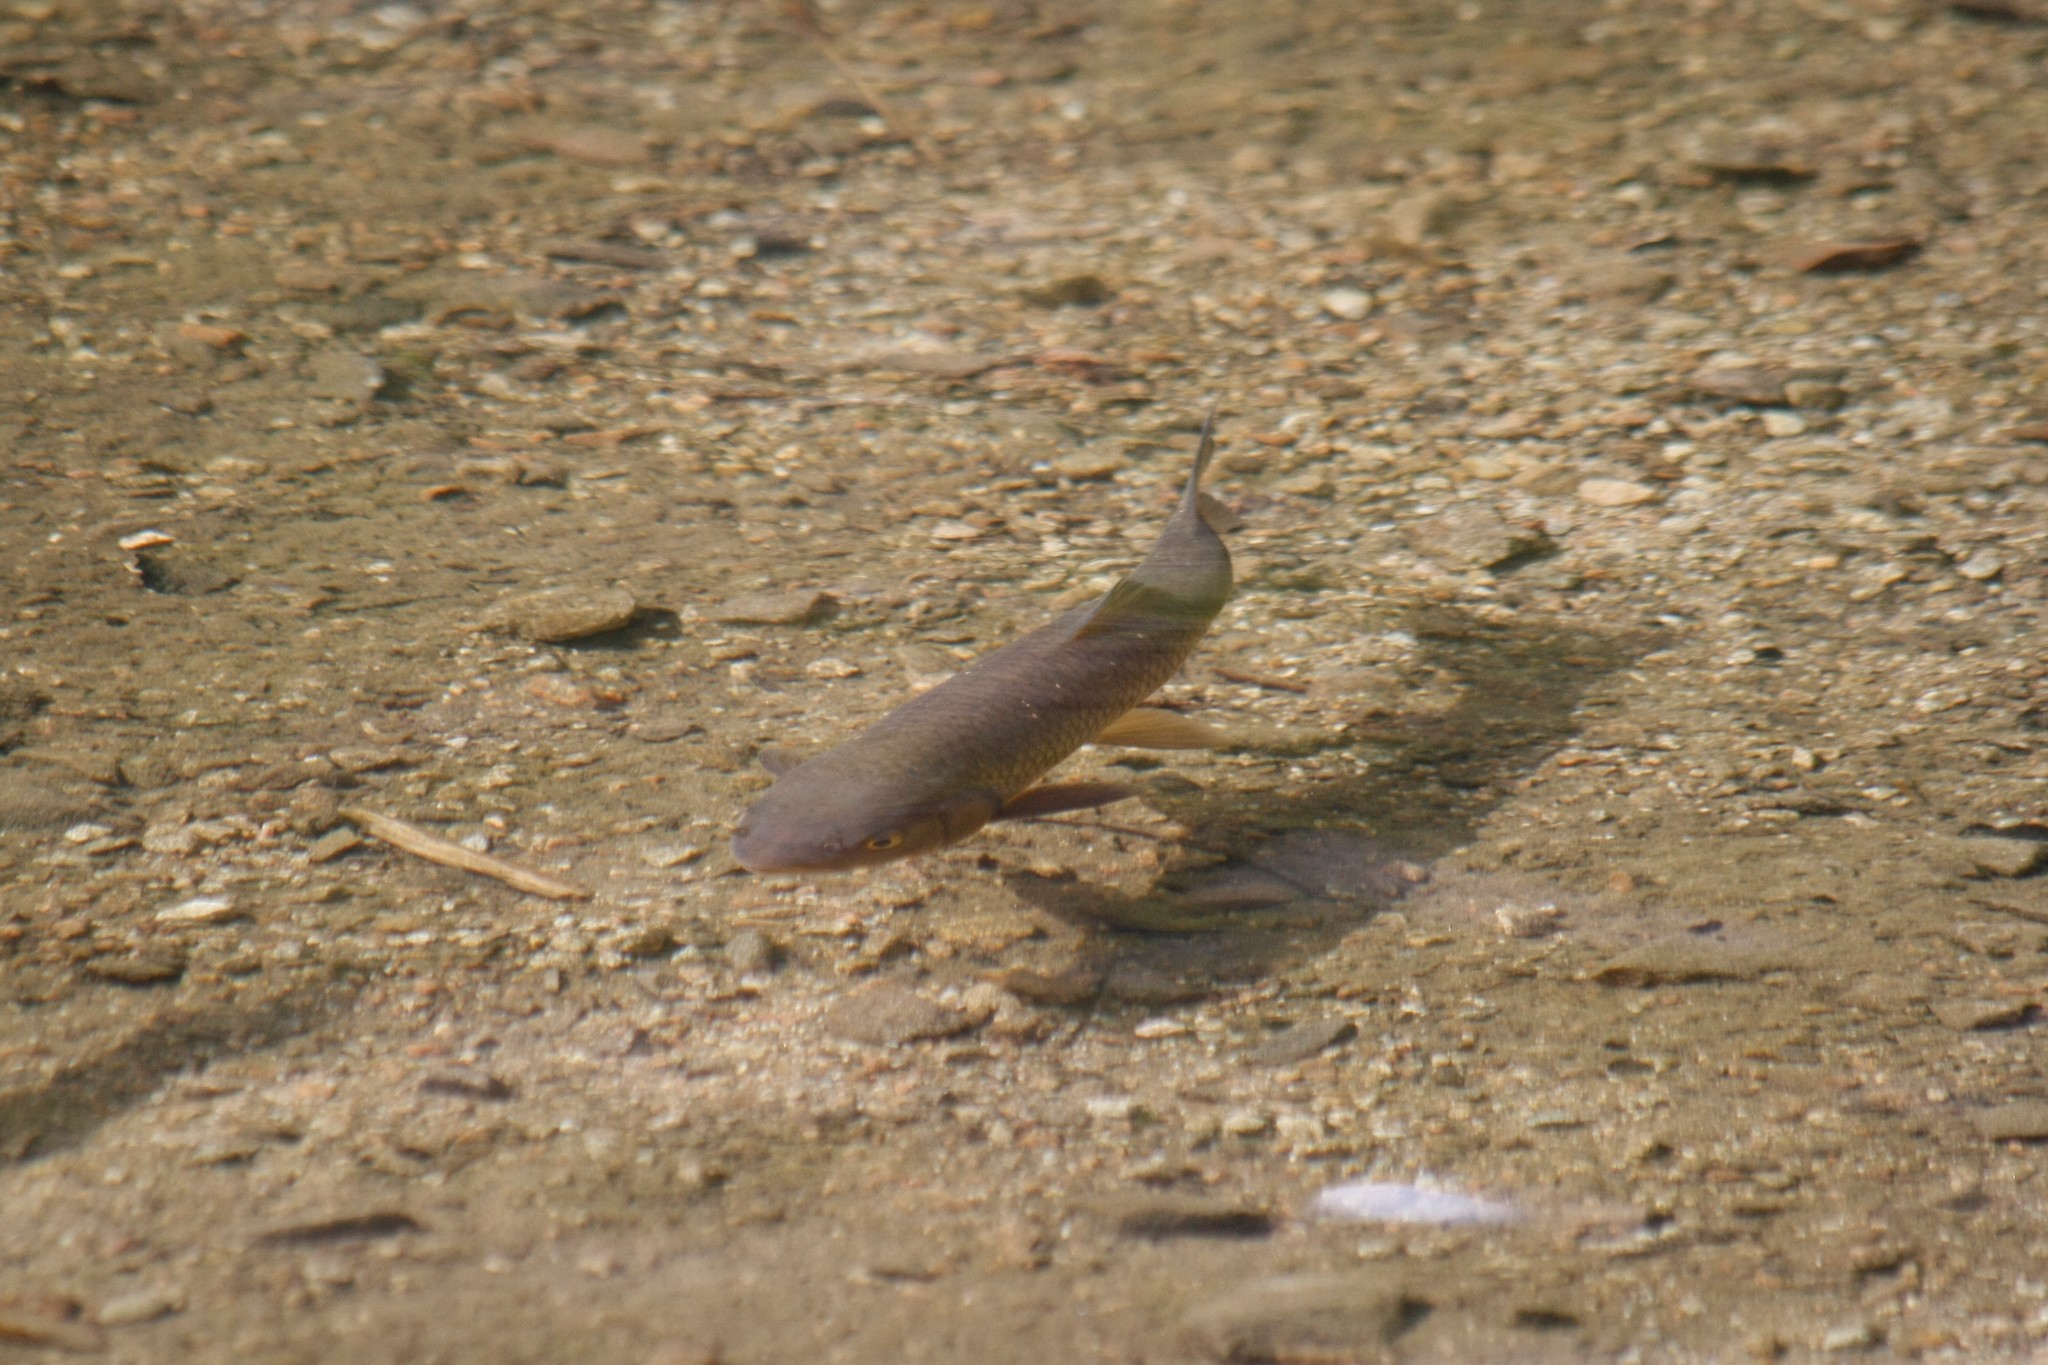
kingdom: Animalia
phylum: Chordata
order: Cypriniformes
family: Cyprinidae
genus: Squalius
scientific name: Squalius cephalus
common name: Chub
